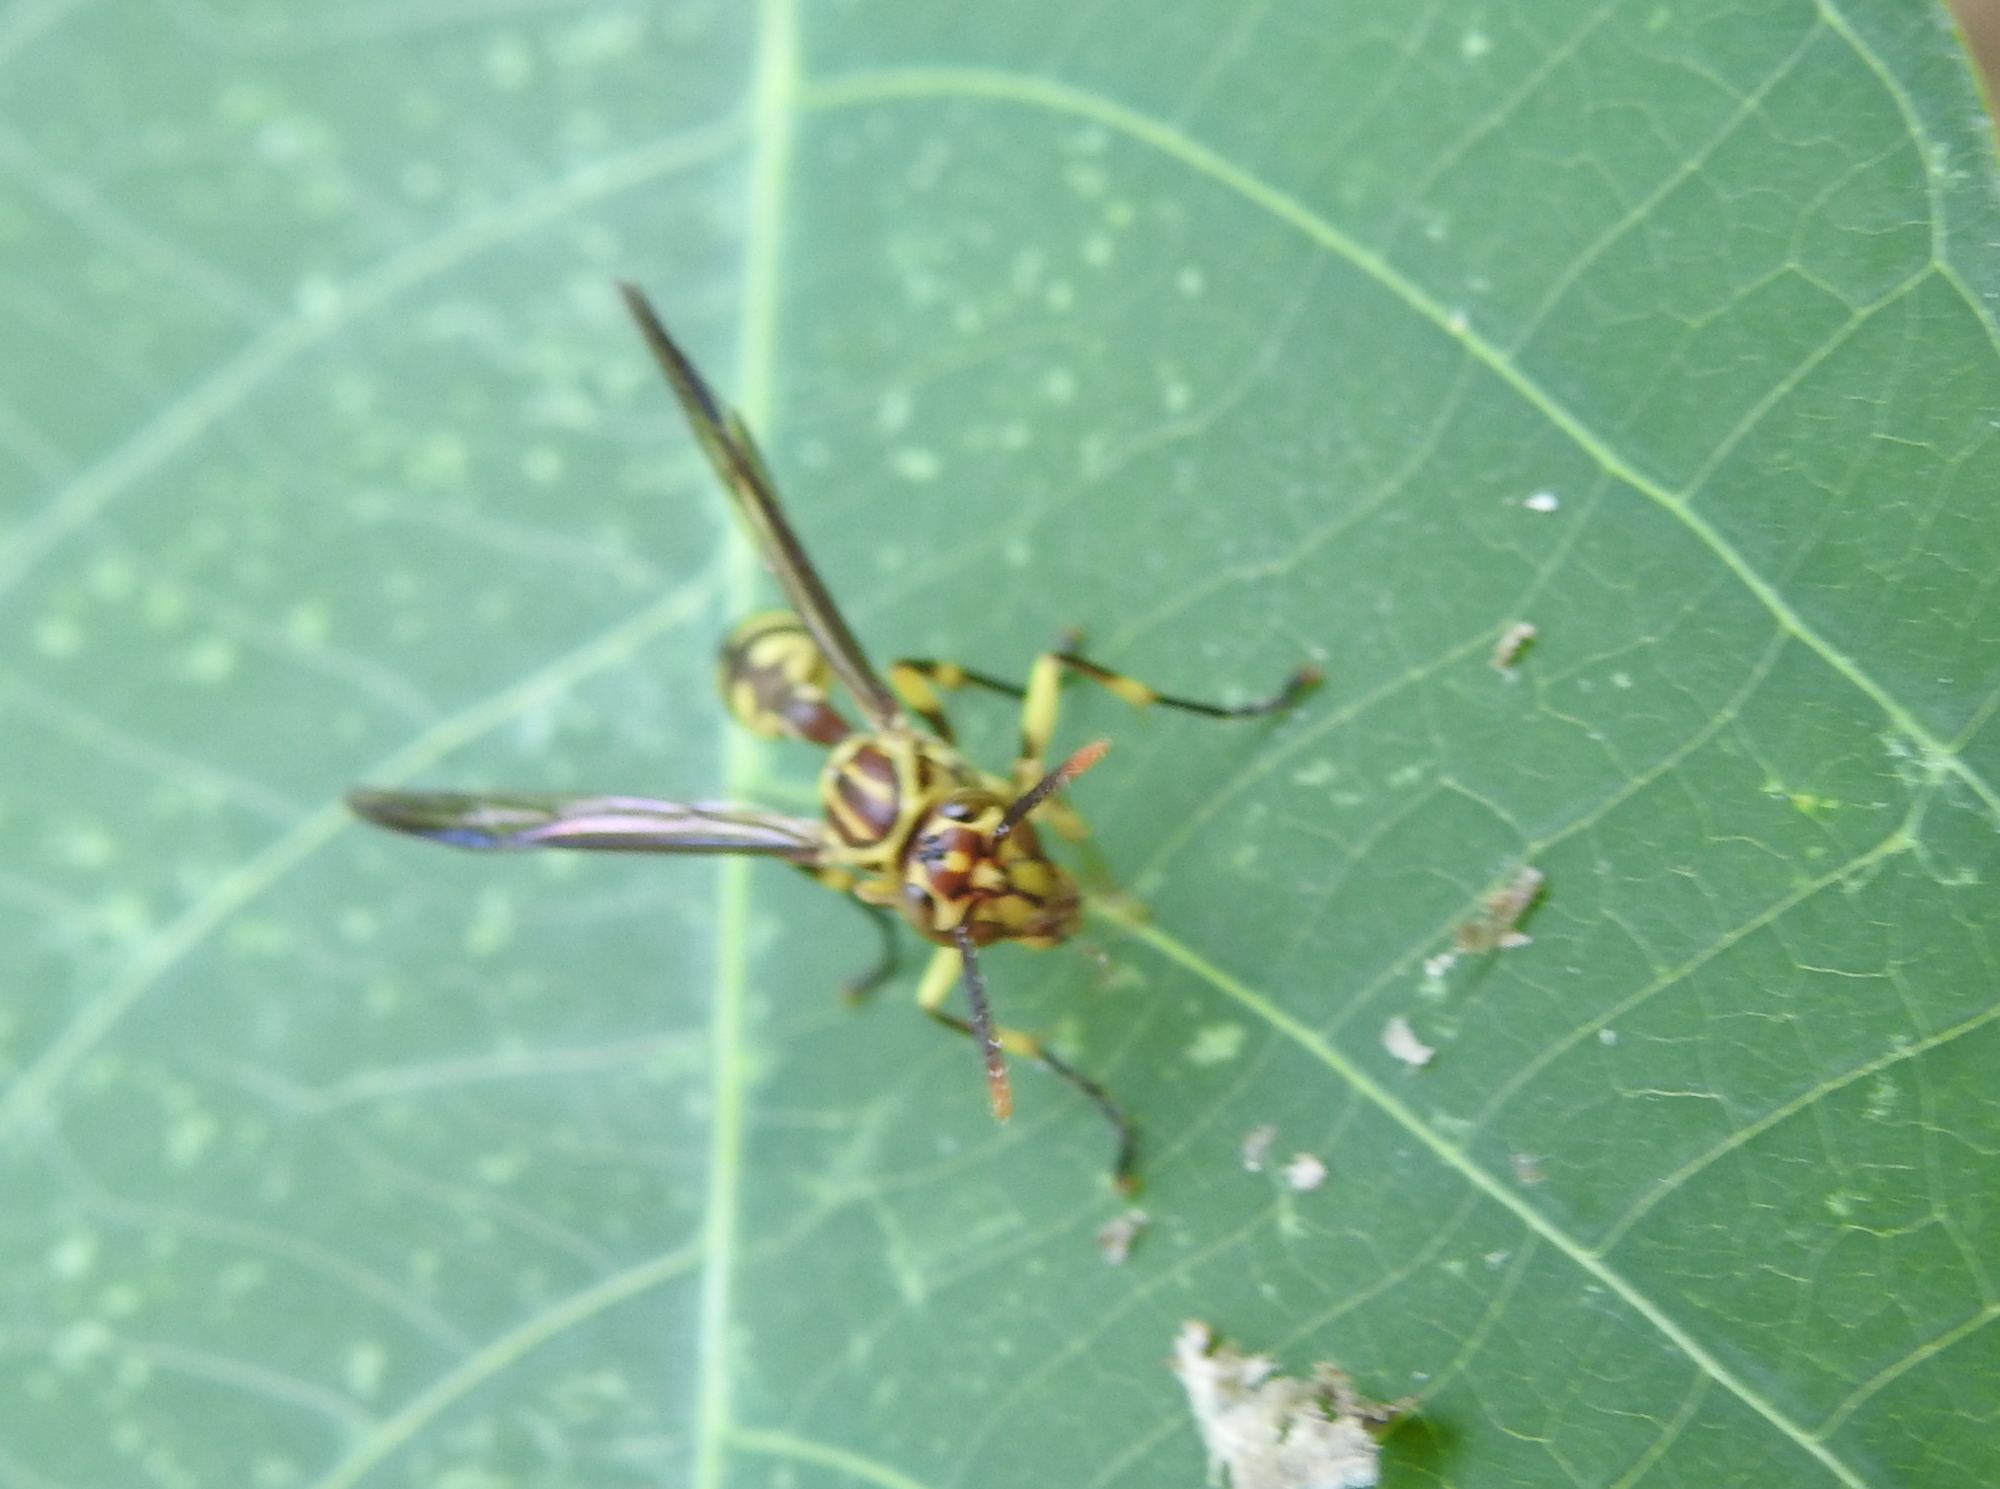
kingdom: Animalia
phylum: Arthropoda
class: Insecta
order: Hymenoptera
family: Vespidae
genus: Parapolybia
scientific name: Parapolybia varia
